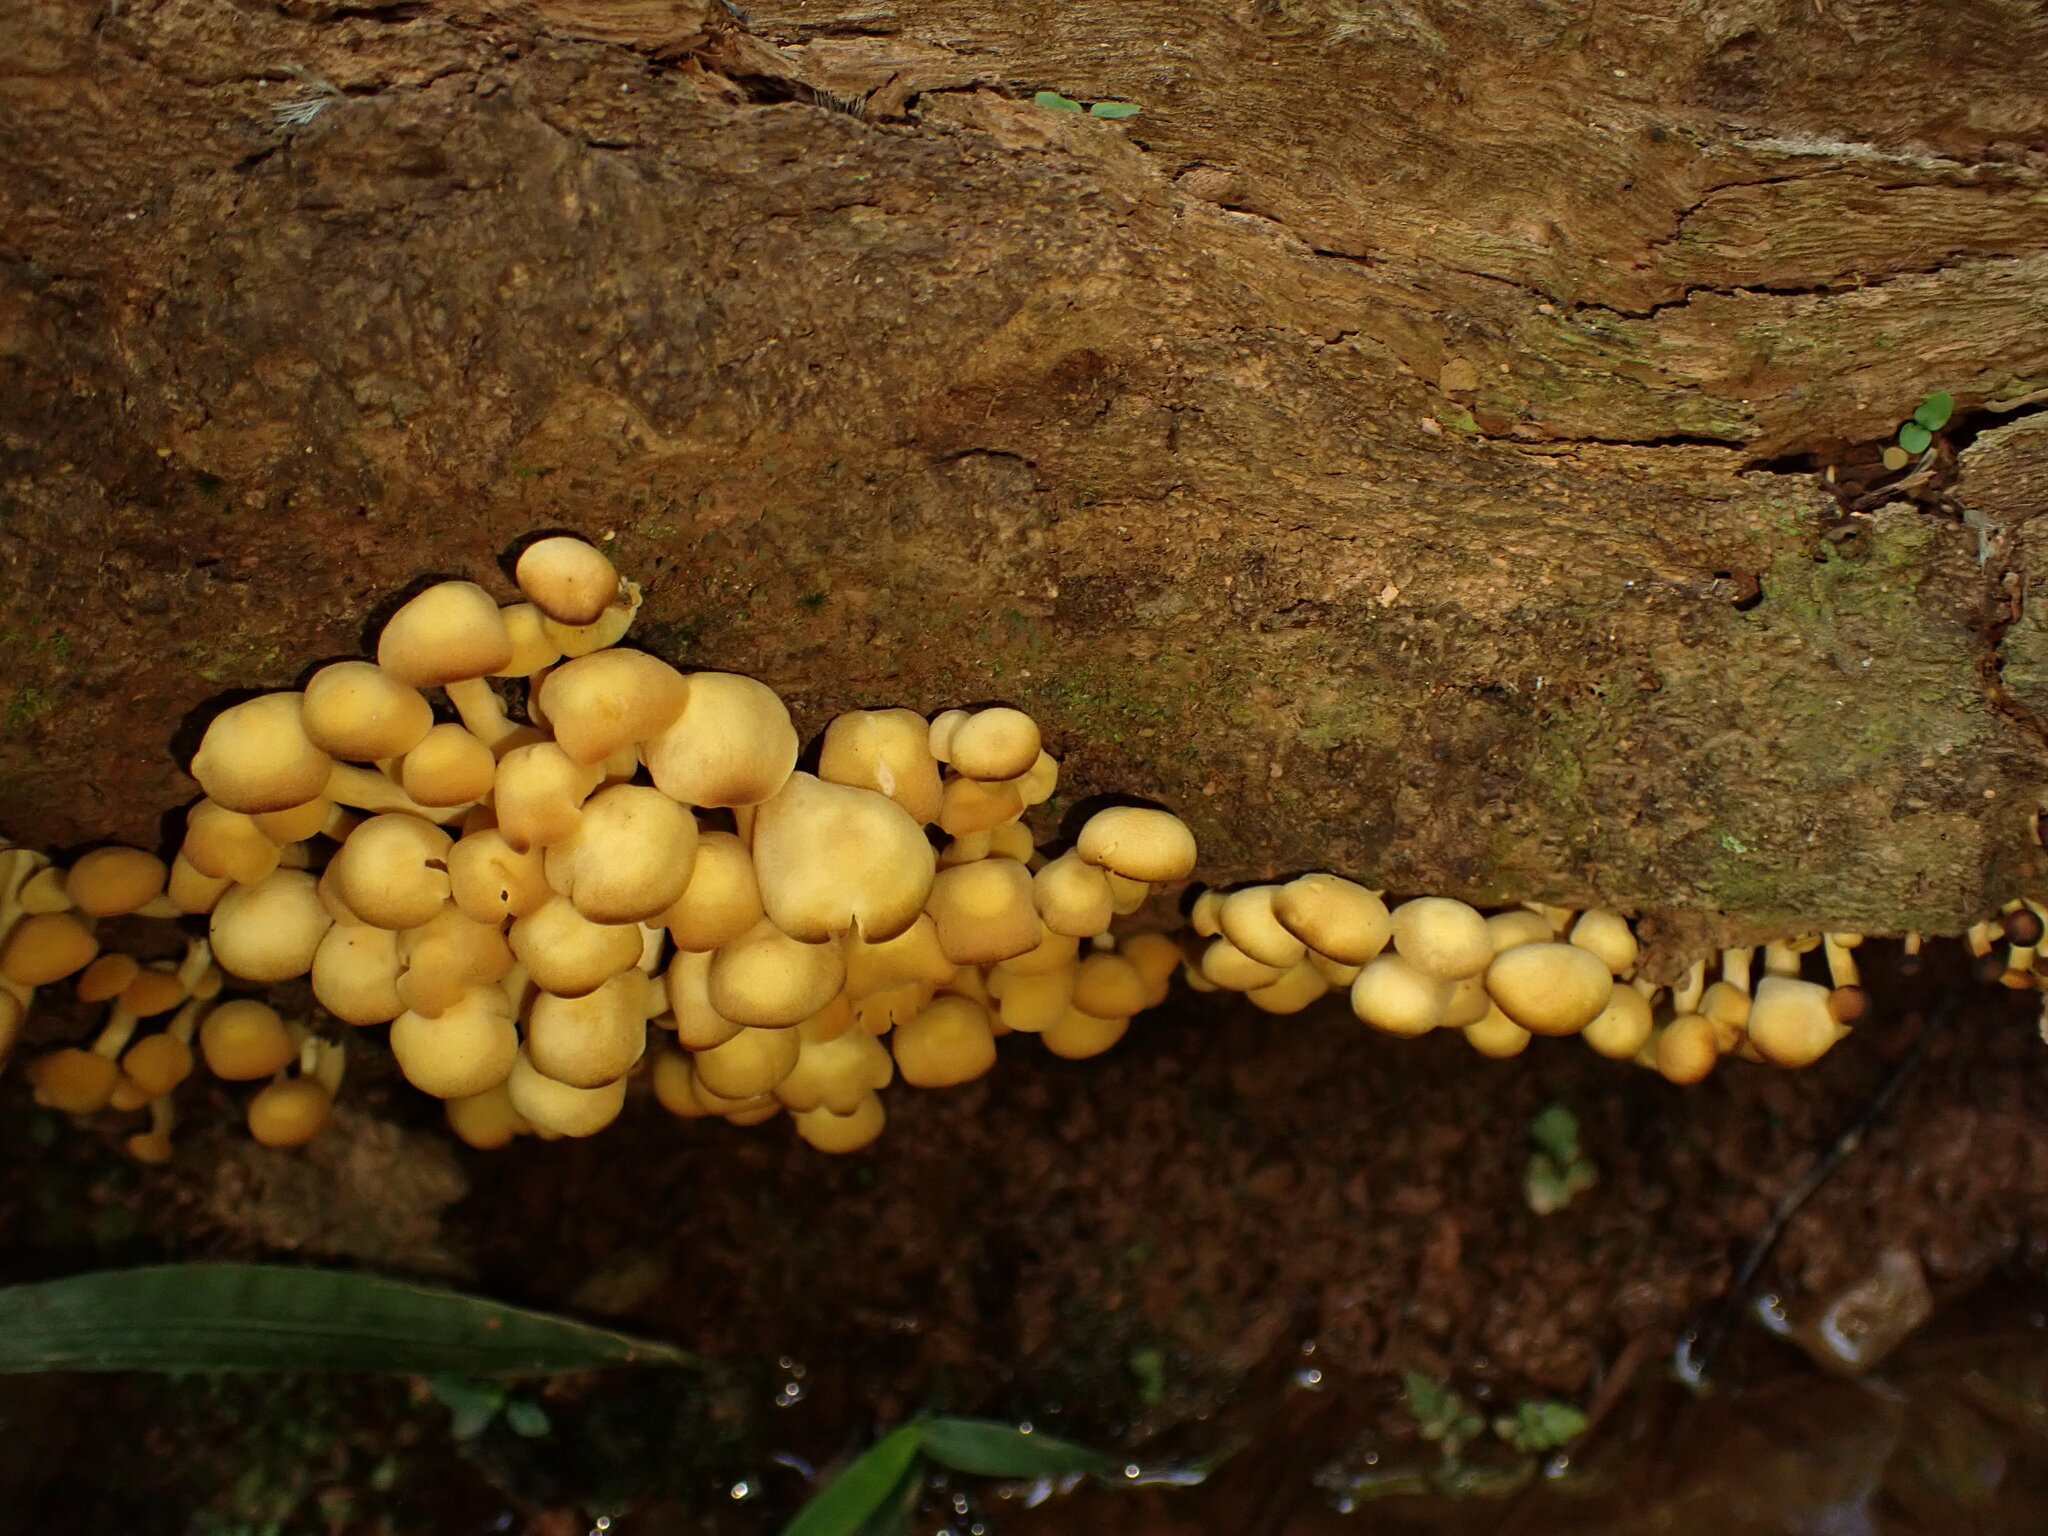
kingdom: Fungi
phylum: Basidiomycota
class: Agaricomycetes
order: Agaricales
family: Tricholomataceae
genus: Tricholomopsis
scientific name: Tricholomopsis aurea
